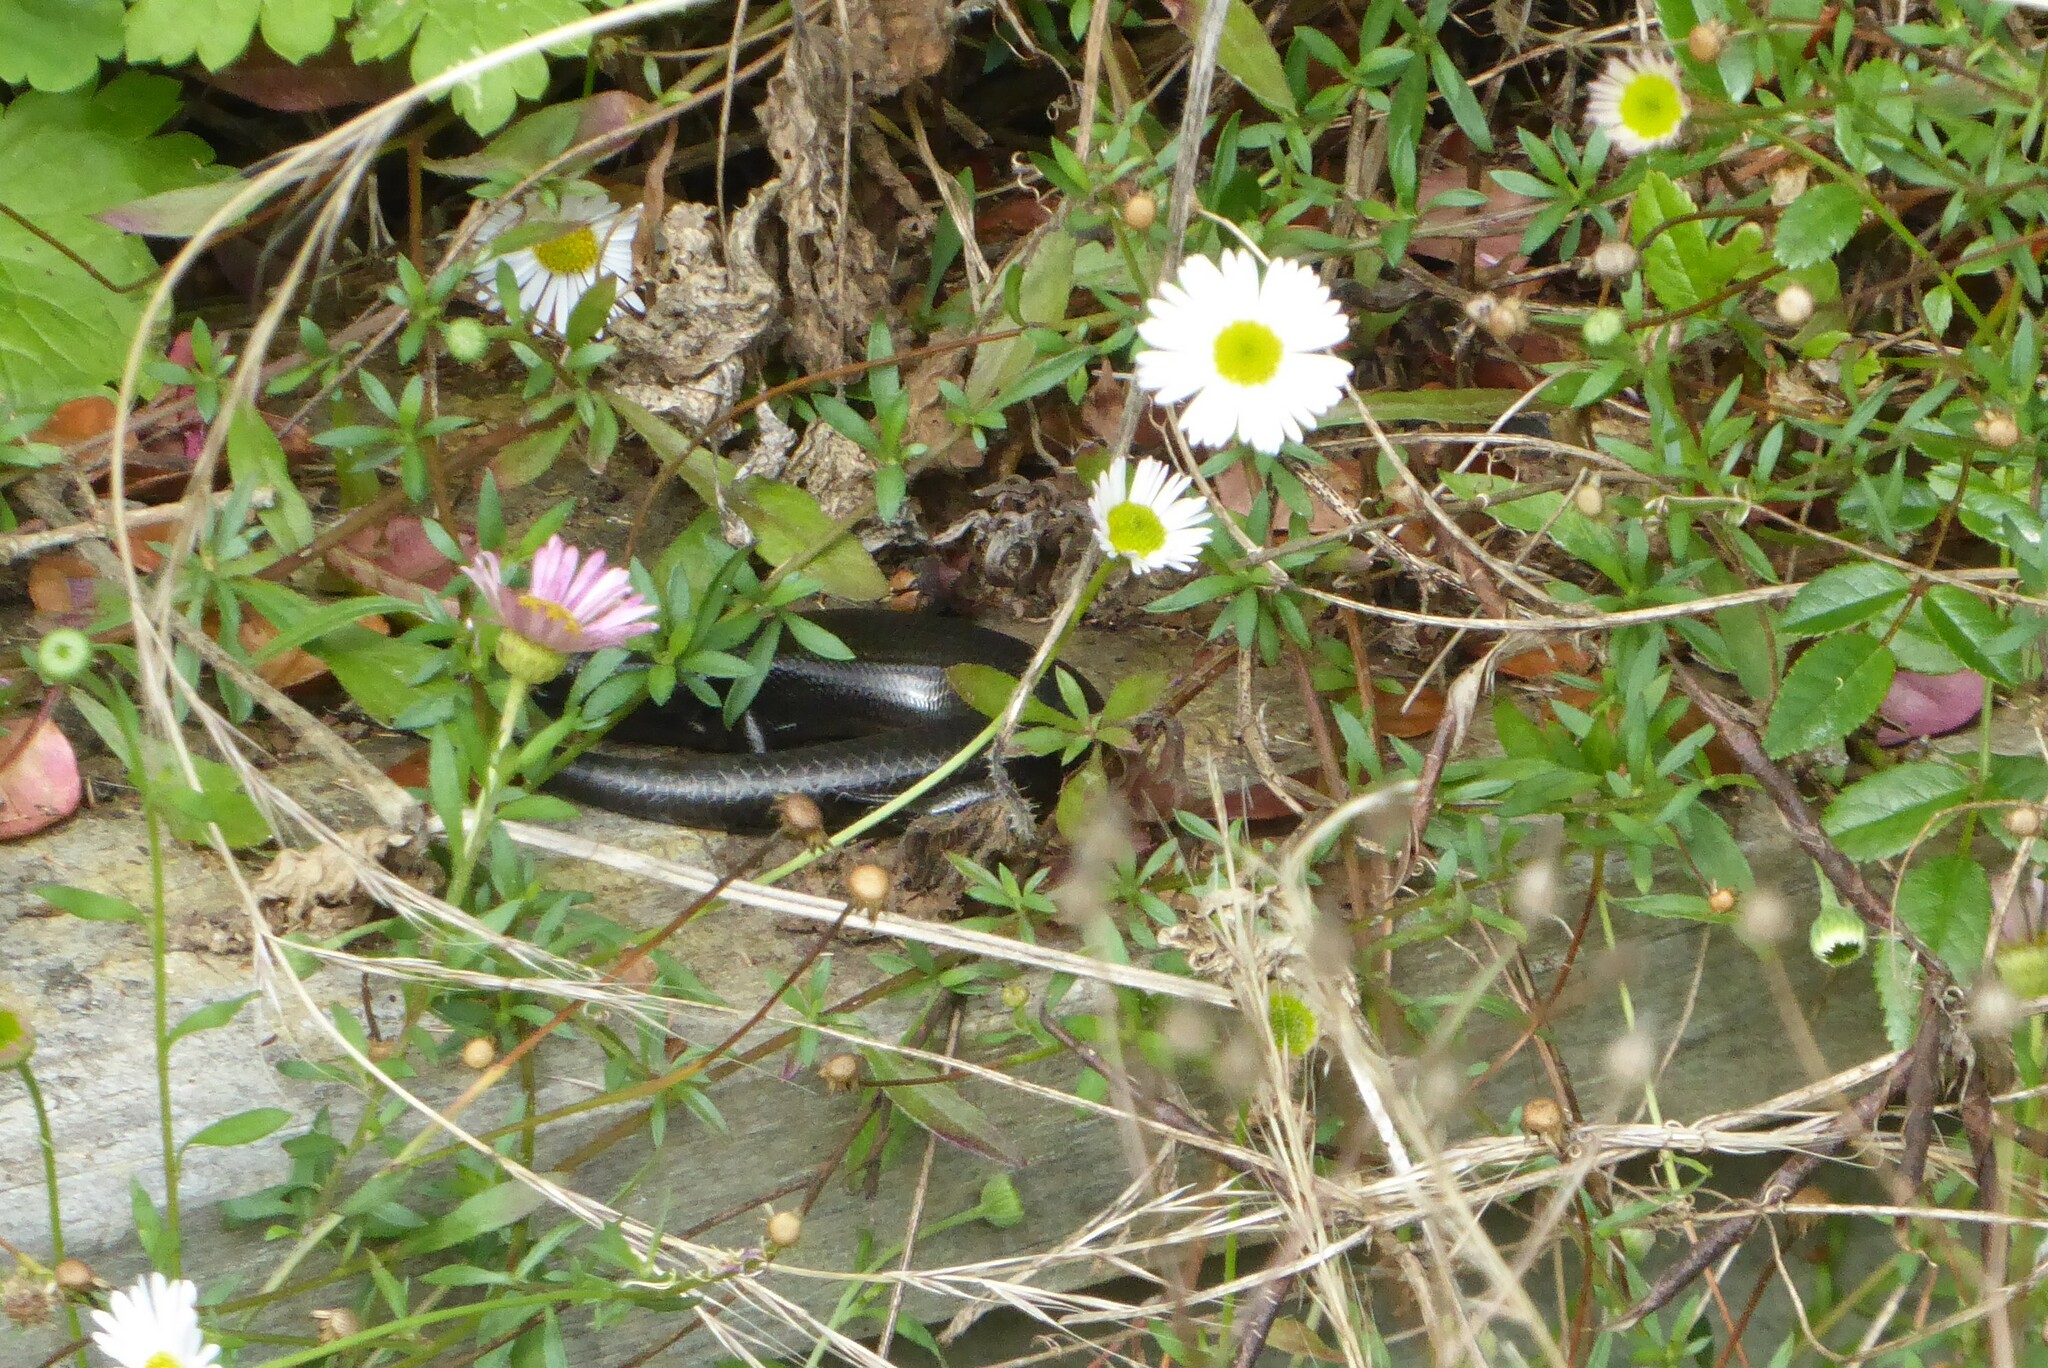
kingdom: Animalia
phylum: Chordata
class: Squamata
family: Scincidae
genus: Oligosoma
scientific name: Oligosoma polychroma
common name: Common new zealand skink
